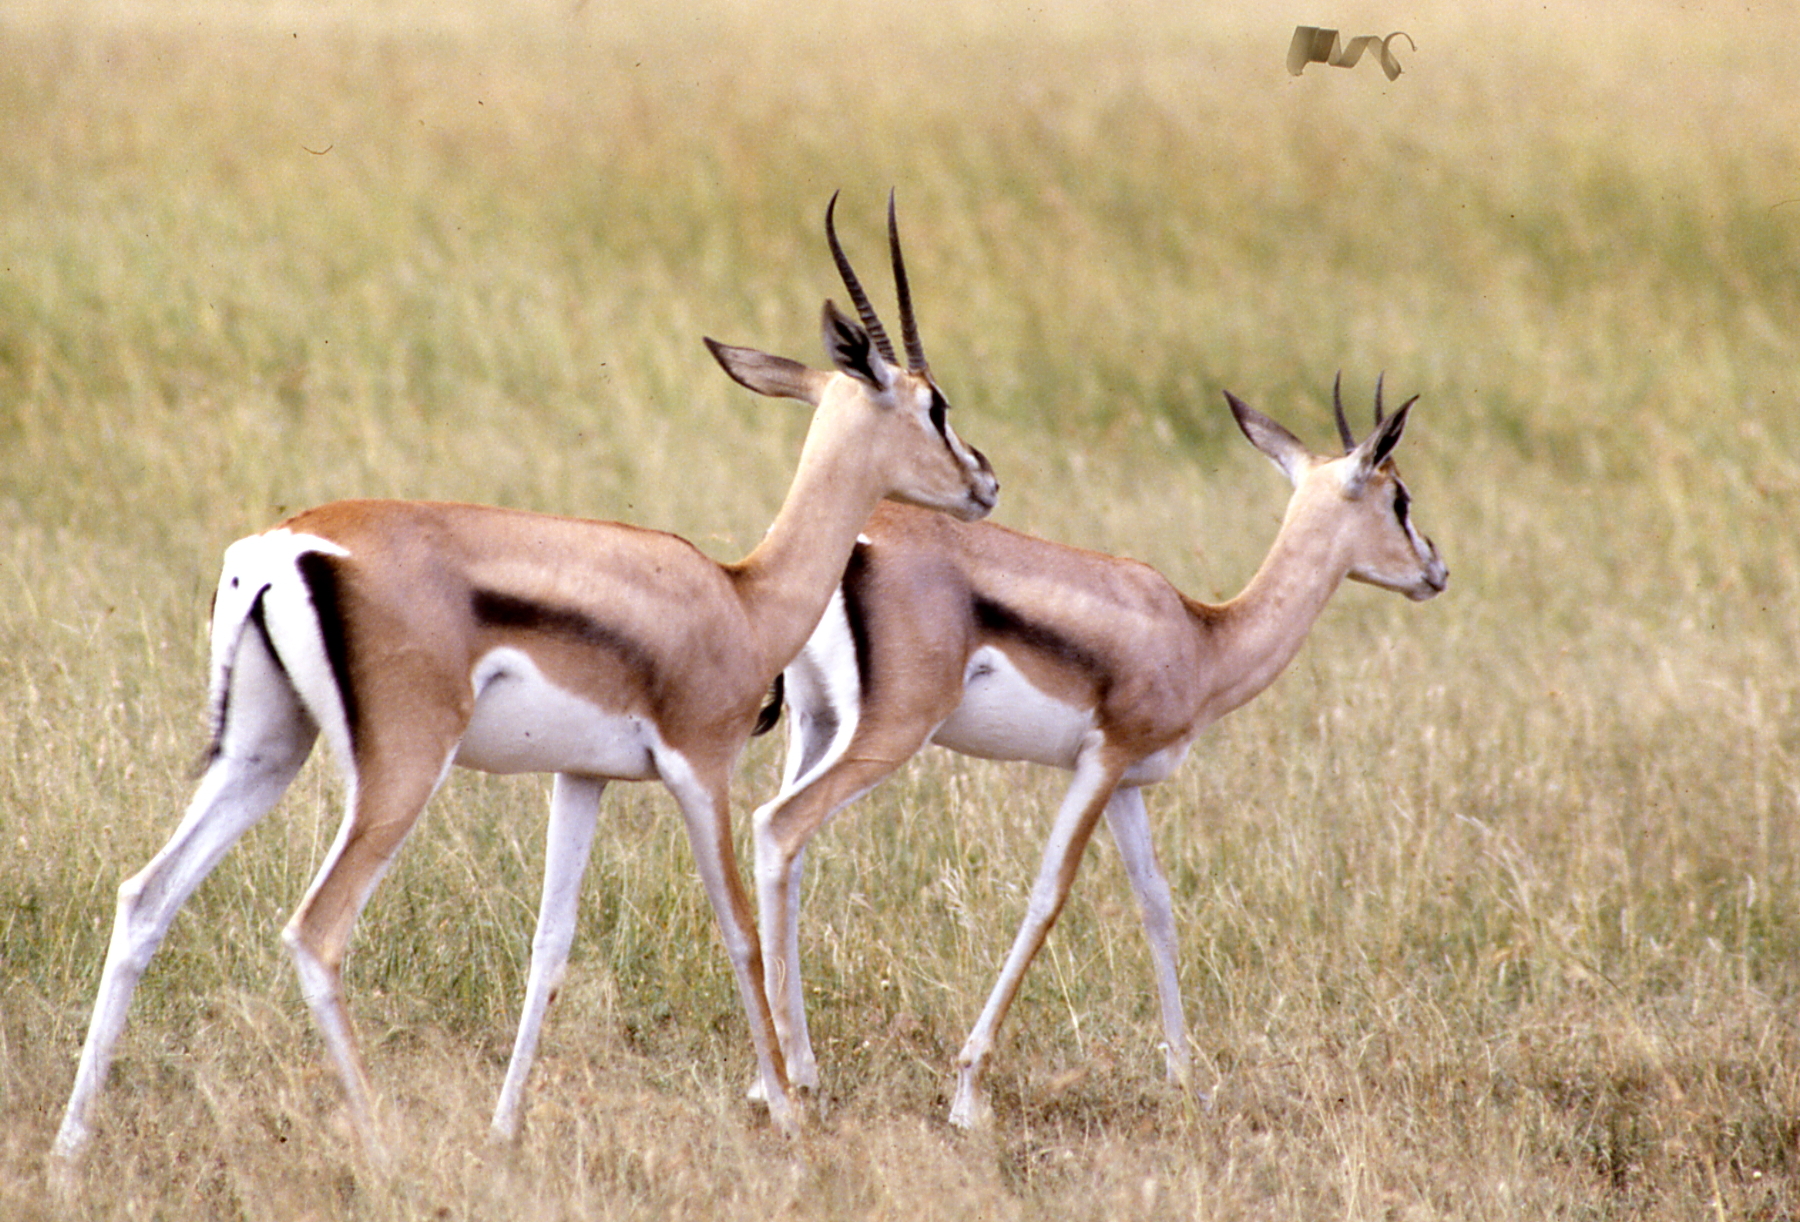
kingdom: Animalia
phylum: Chordata
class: Mammalia
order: Artiodactyla
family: Bovidae
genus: Nanger
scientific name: Nanger granti
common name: Grant's gazelle
